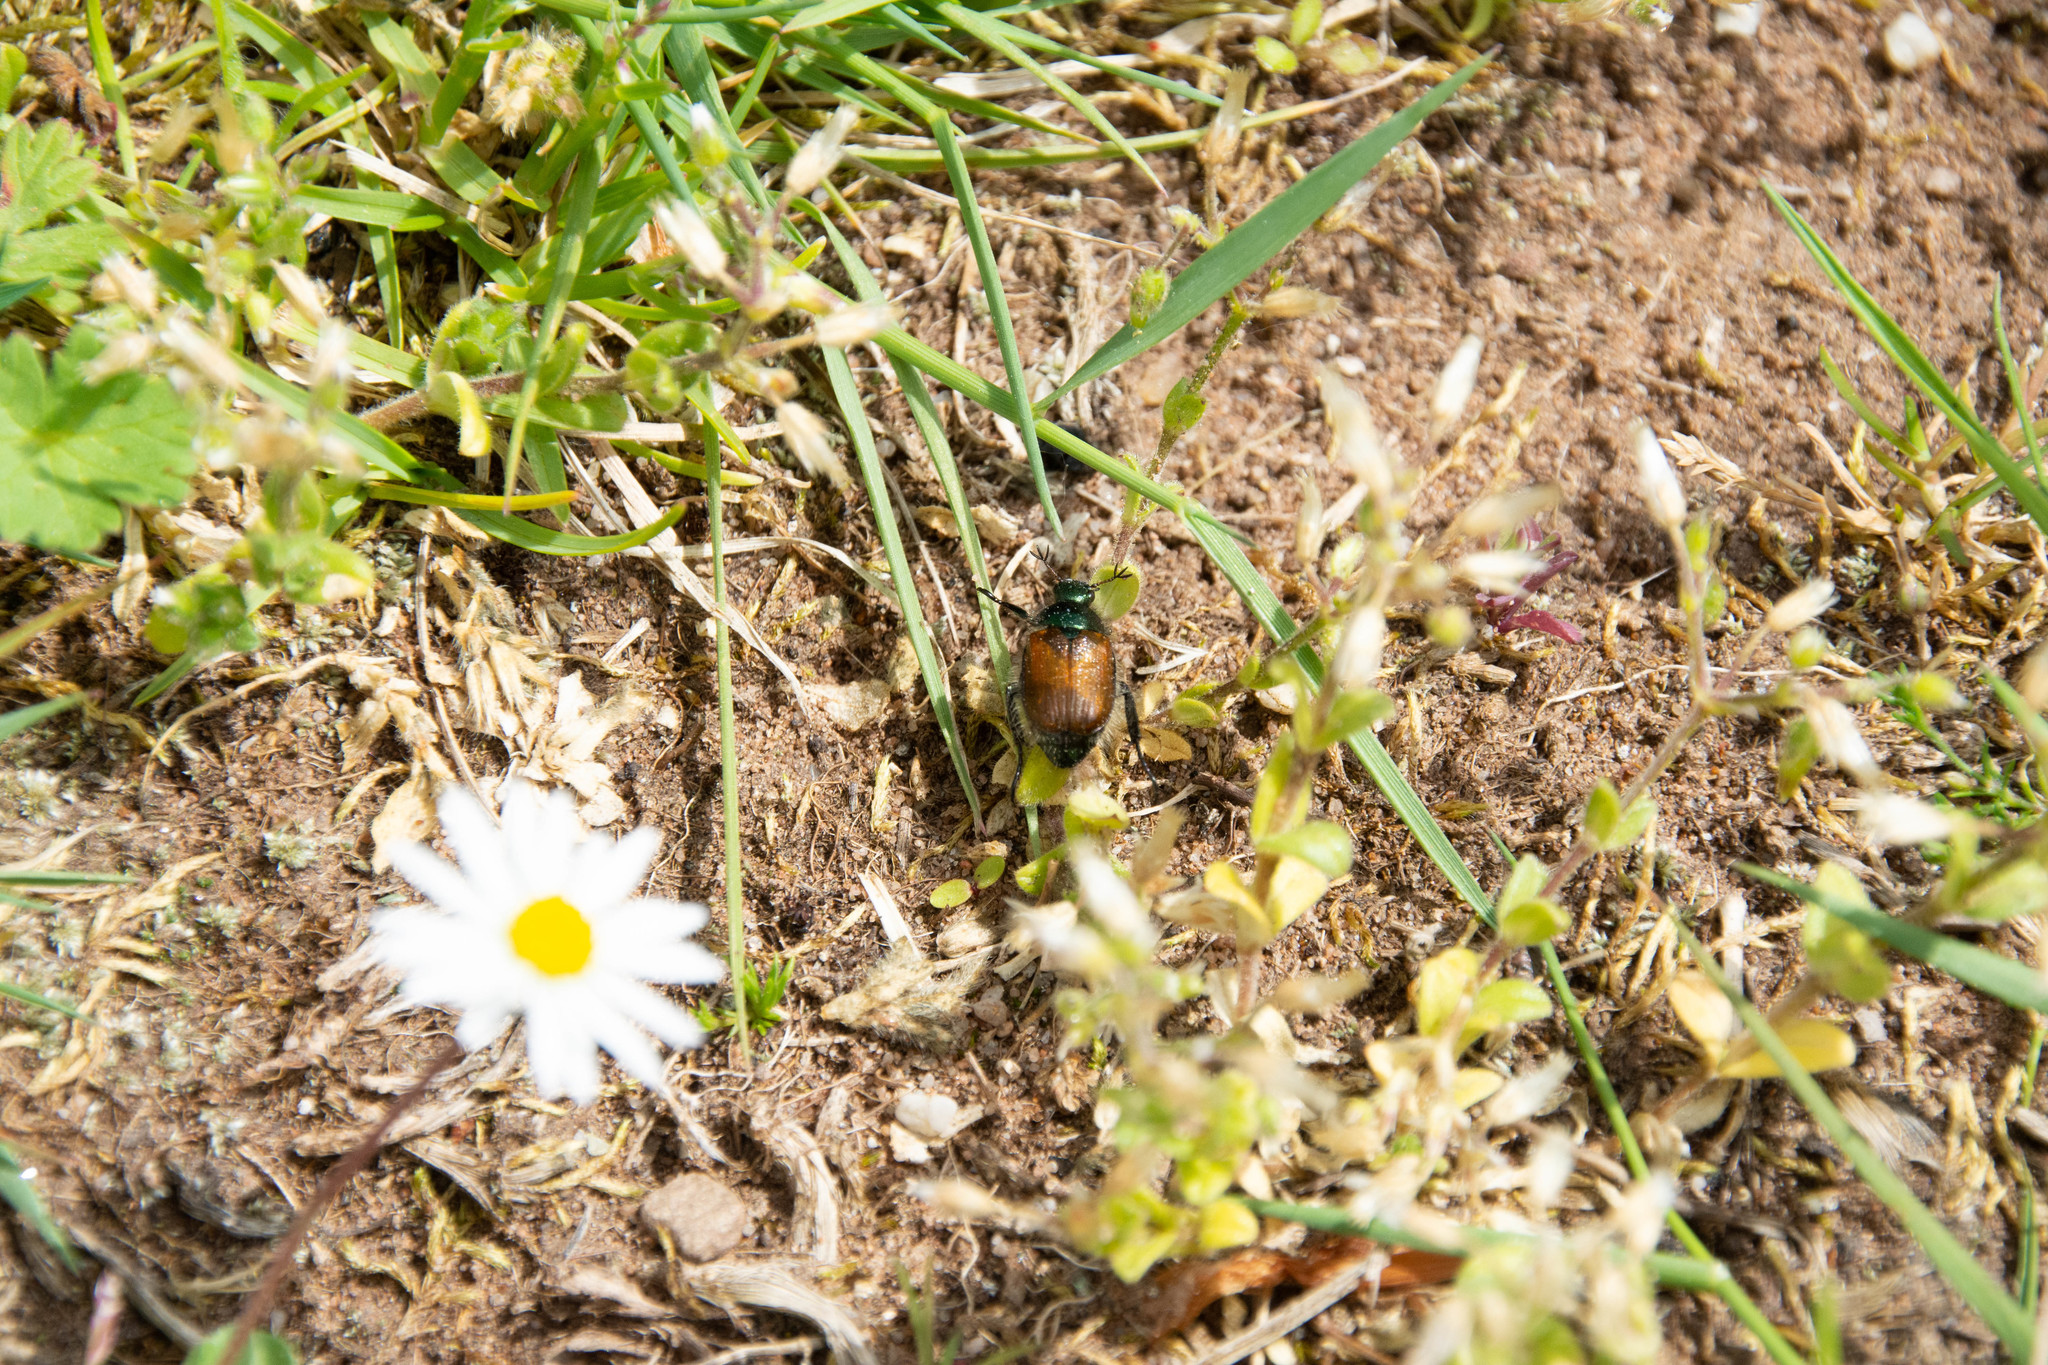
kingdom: Animalia
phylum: Arthropoda
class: Insecta
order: Coleoptera
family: Scarabaeidae
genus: Phyllopertha
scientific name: Phyllopertha horticola
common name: Garden chafer
